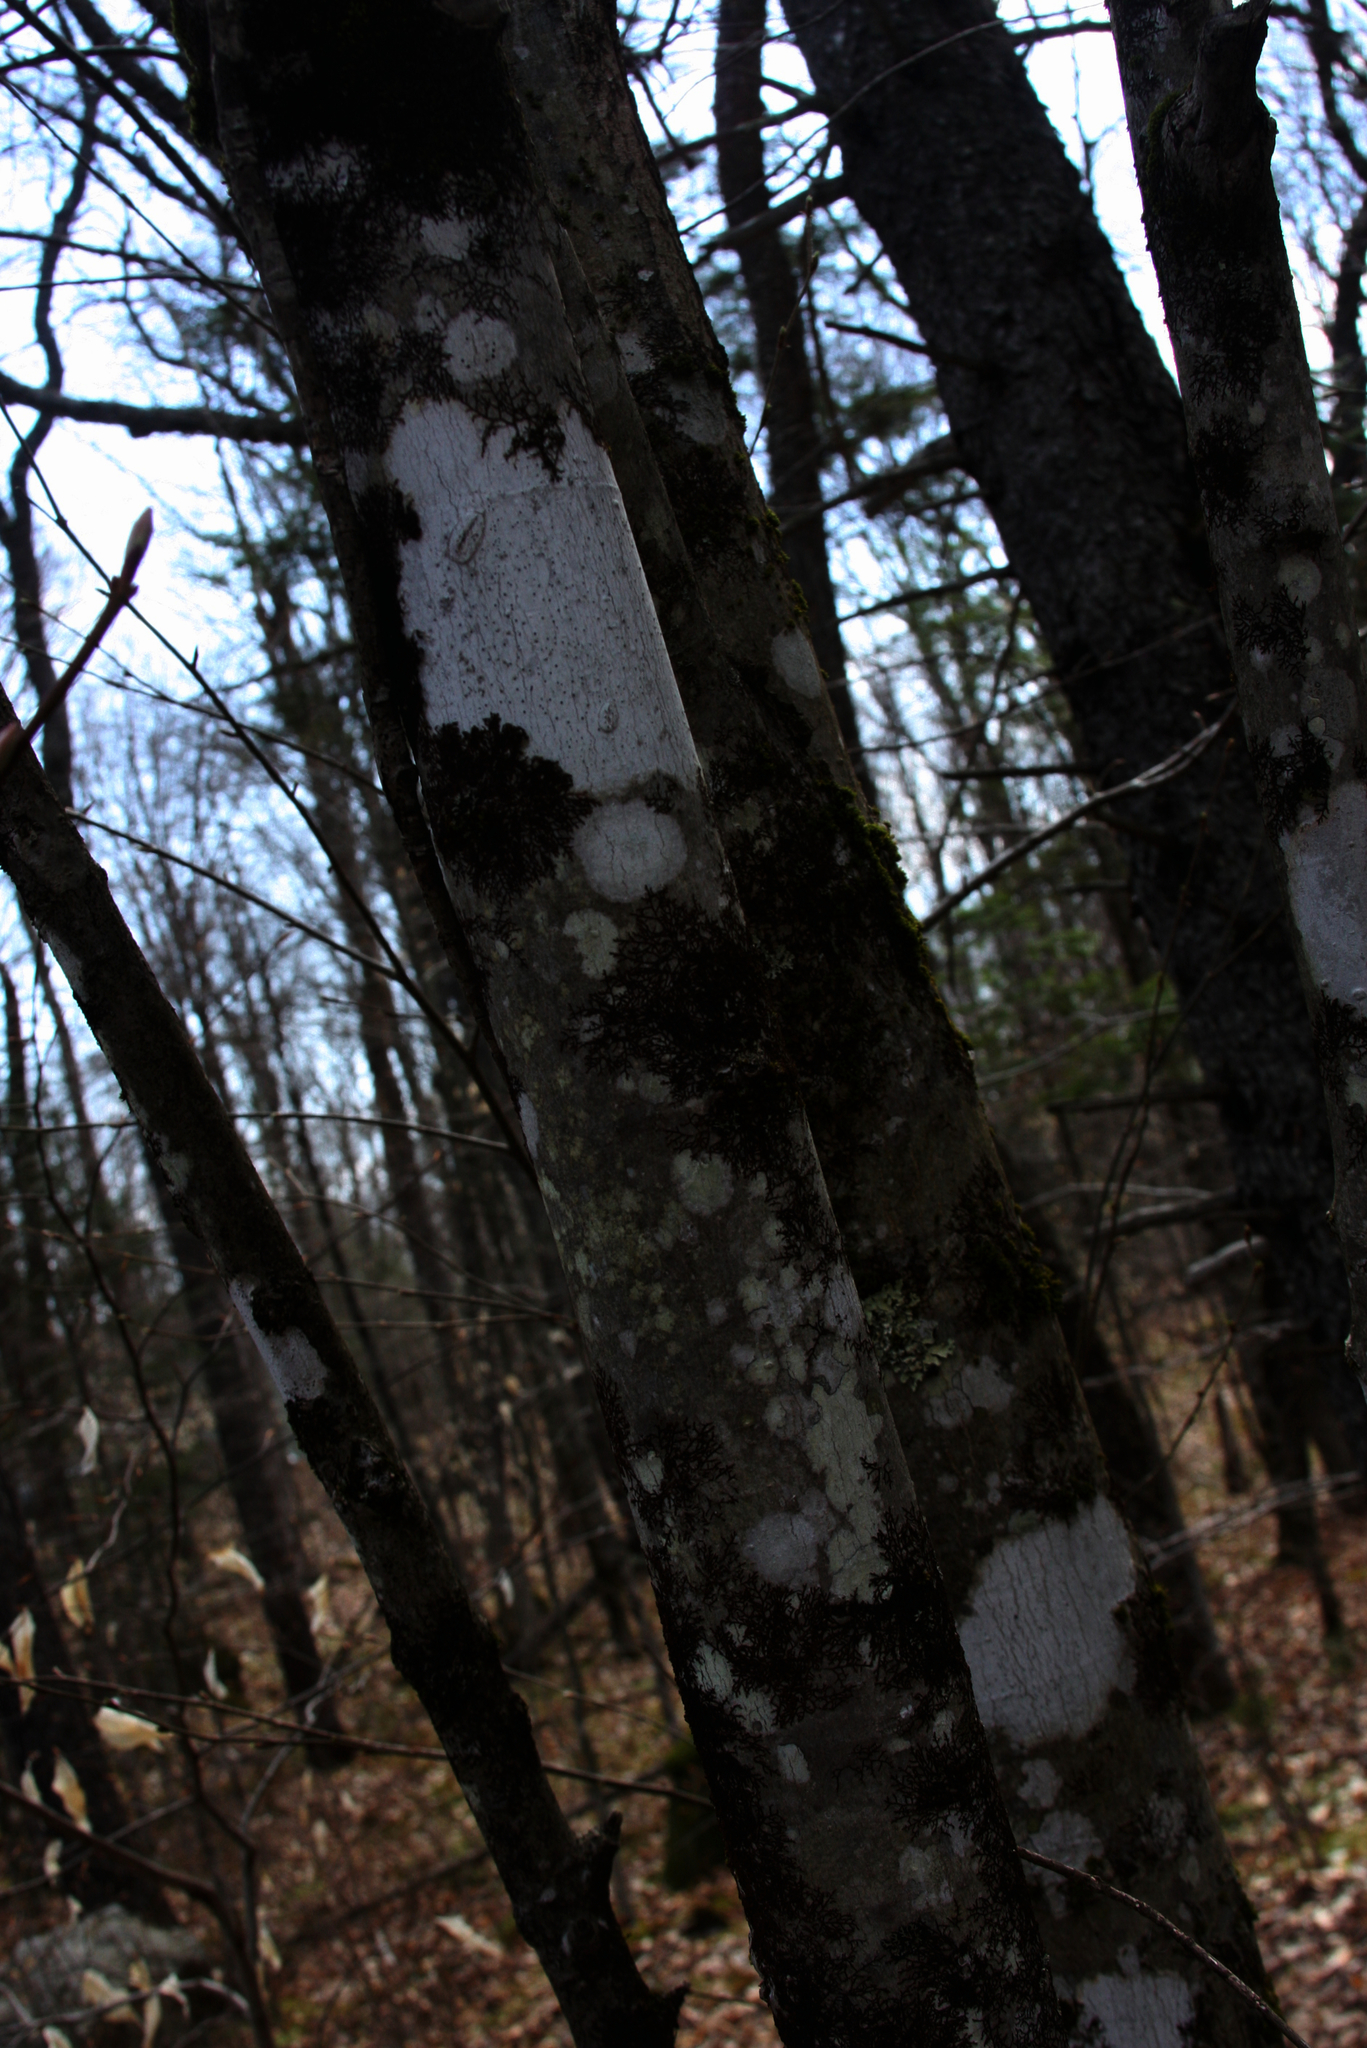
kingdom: Plantae
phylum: Marchantiophyta
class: Jungermanniopsida
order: Porellales
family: Frullaniaceae
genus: Frullania
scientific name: Frullania eboracensis
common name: New york scalewort
